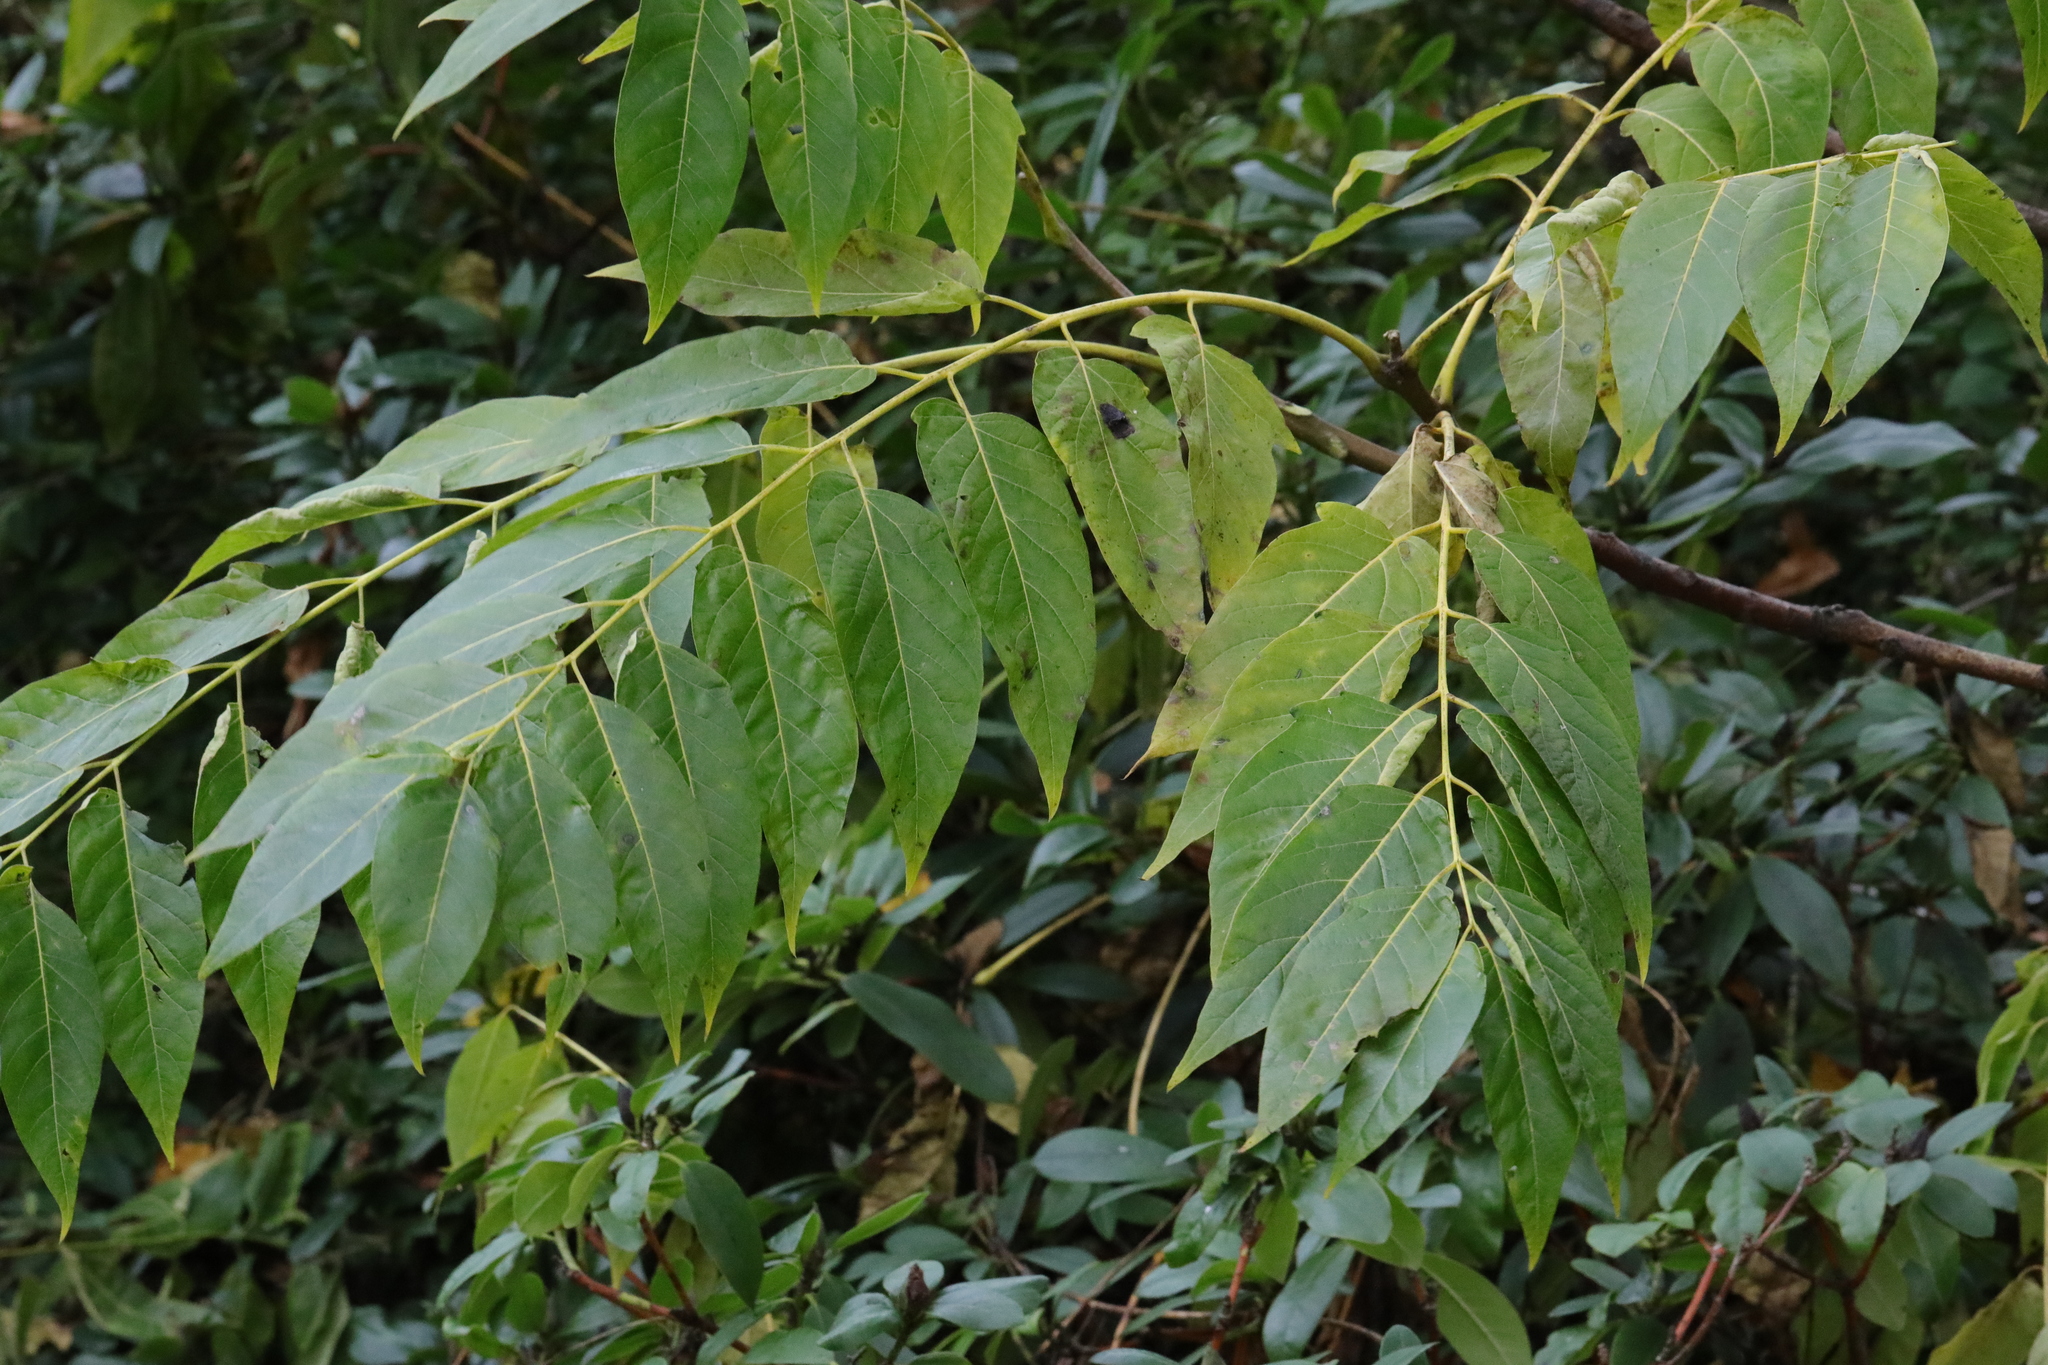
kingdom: Plantae
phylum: Tracheophyta
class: Magnoliopsida
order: Sapindales
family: Simaroubaceae
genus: Ailanthus
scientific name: Ailanthus altissima
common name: Tree-of-heaven
